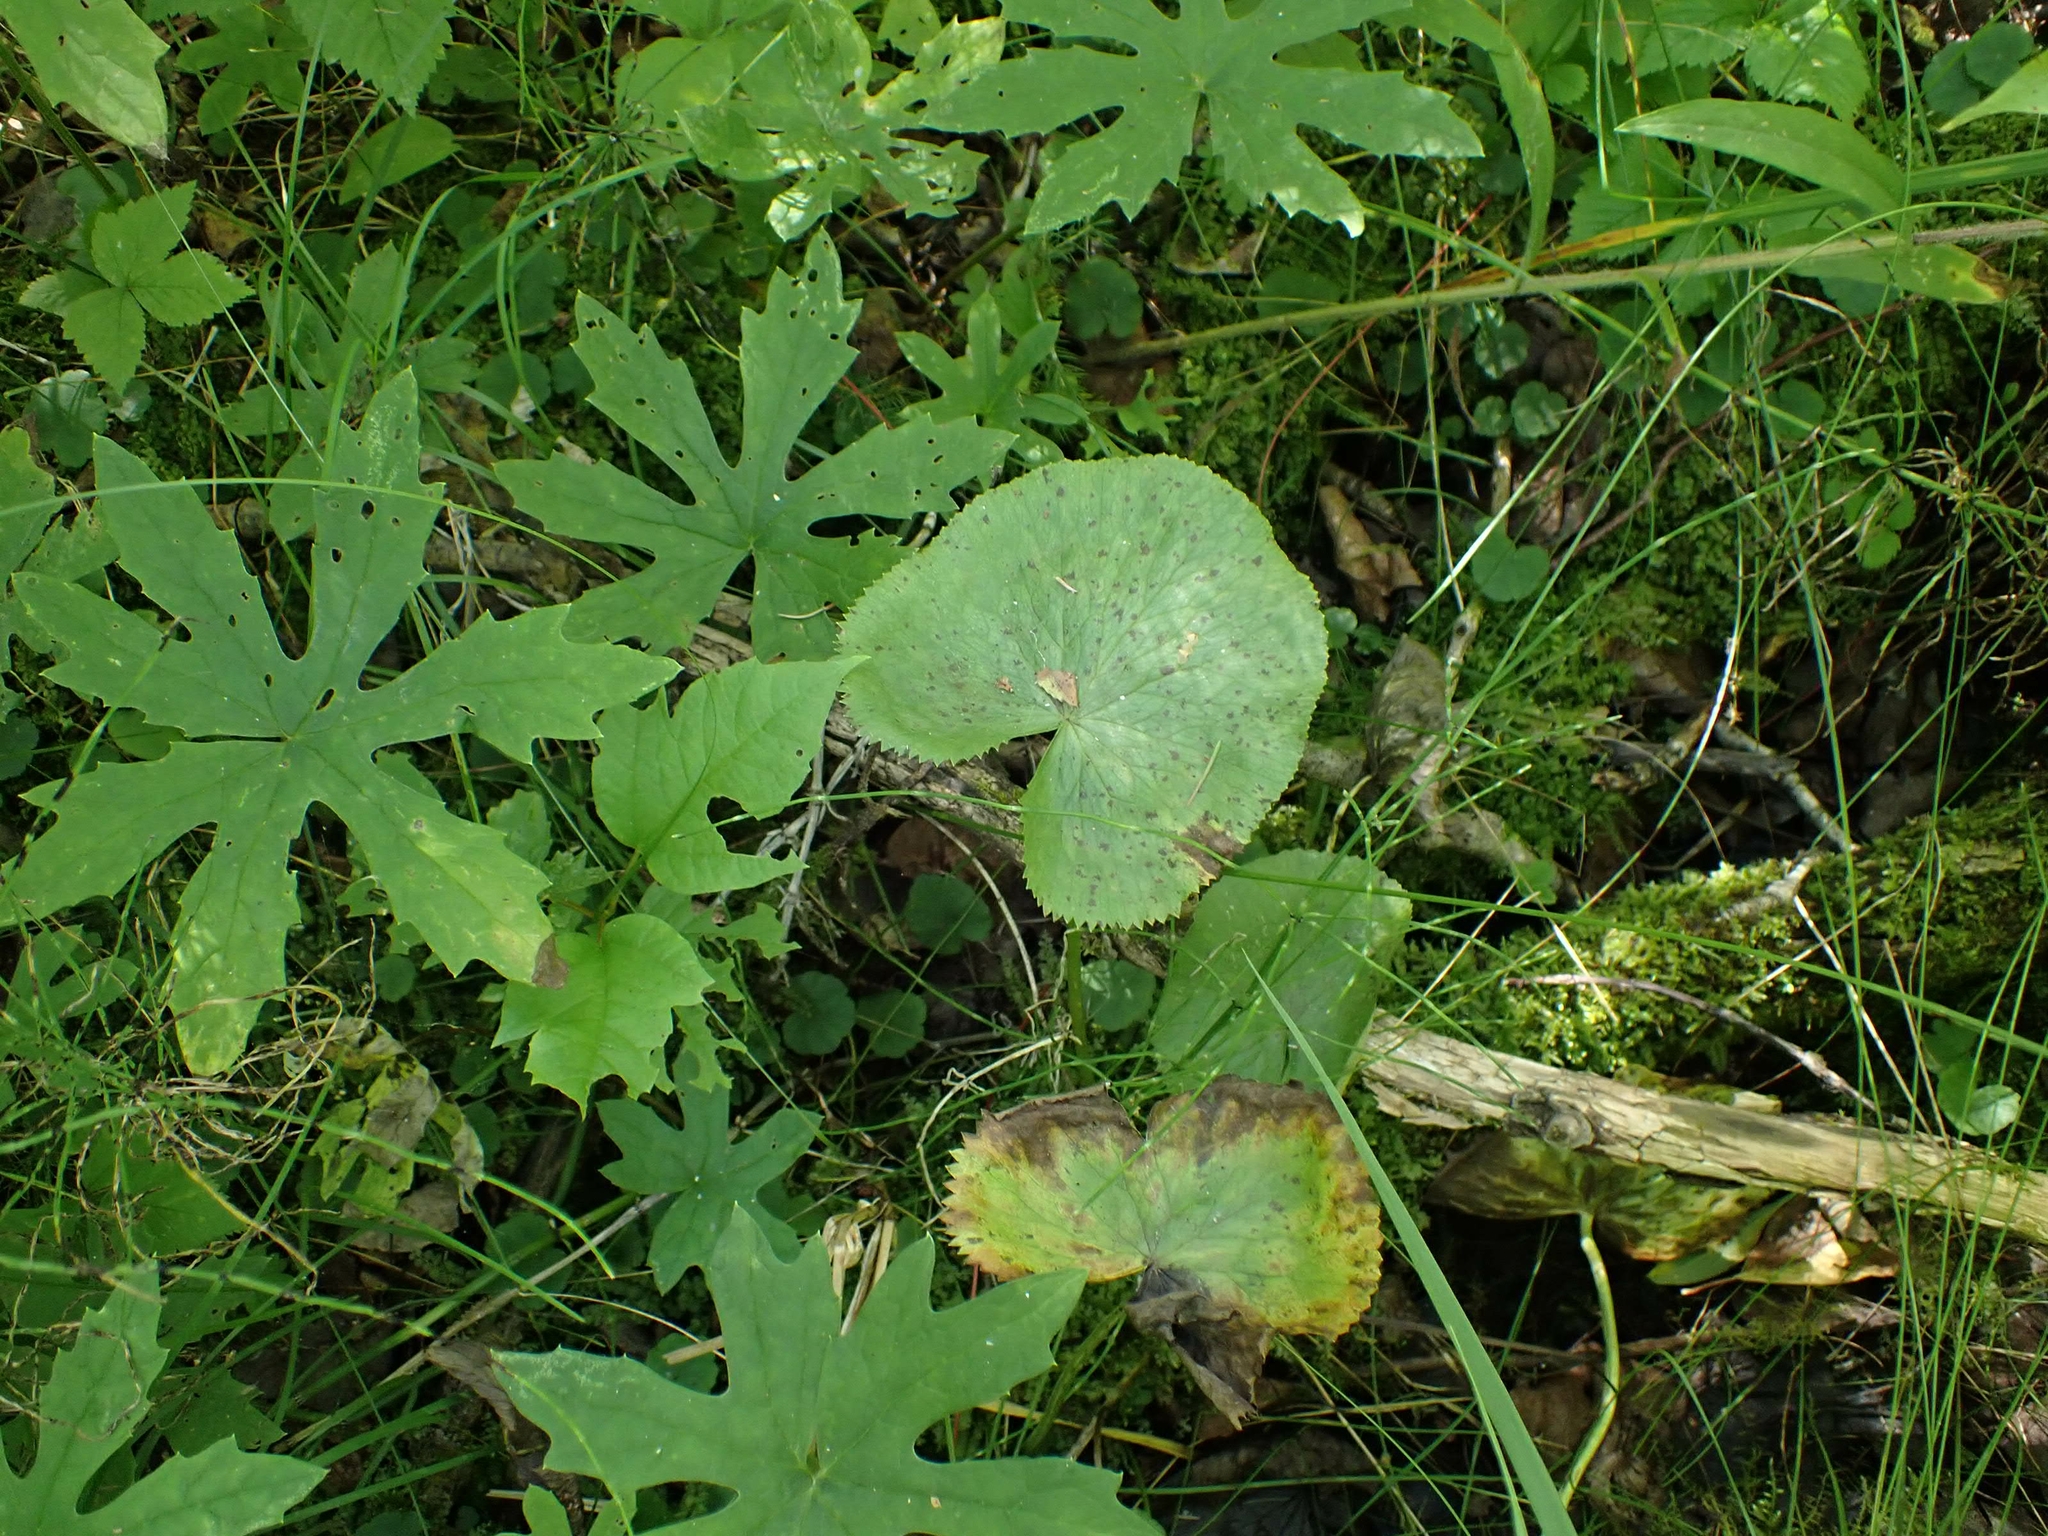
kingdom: Plantae
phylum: Tracheophyta
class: Magnoliopsida
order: Ranunculales
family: Ranunculaceae
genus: Caltha
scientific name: Caltha palustris
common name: Marsh marigold
